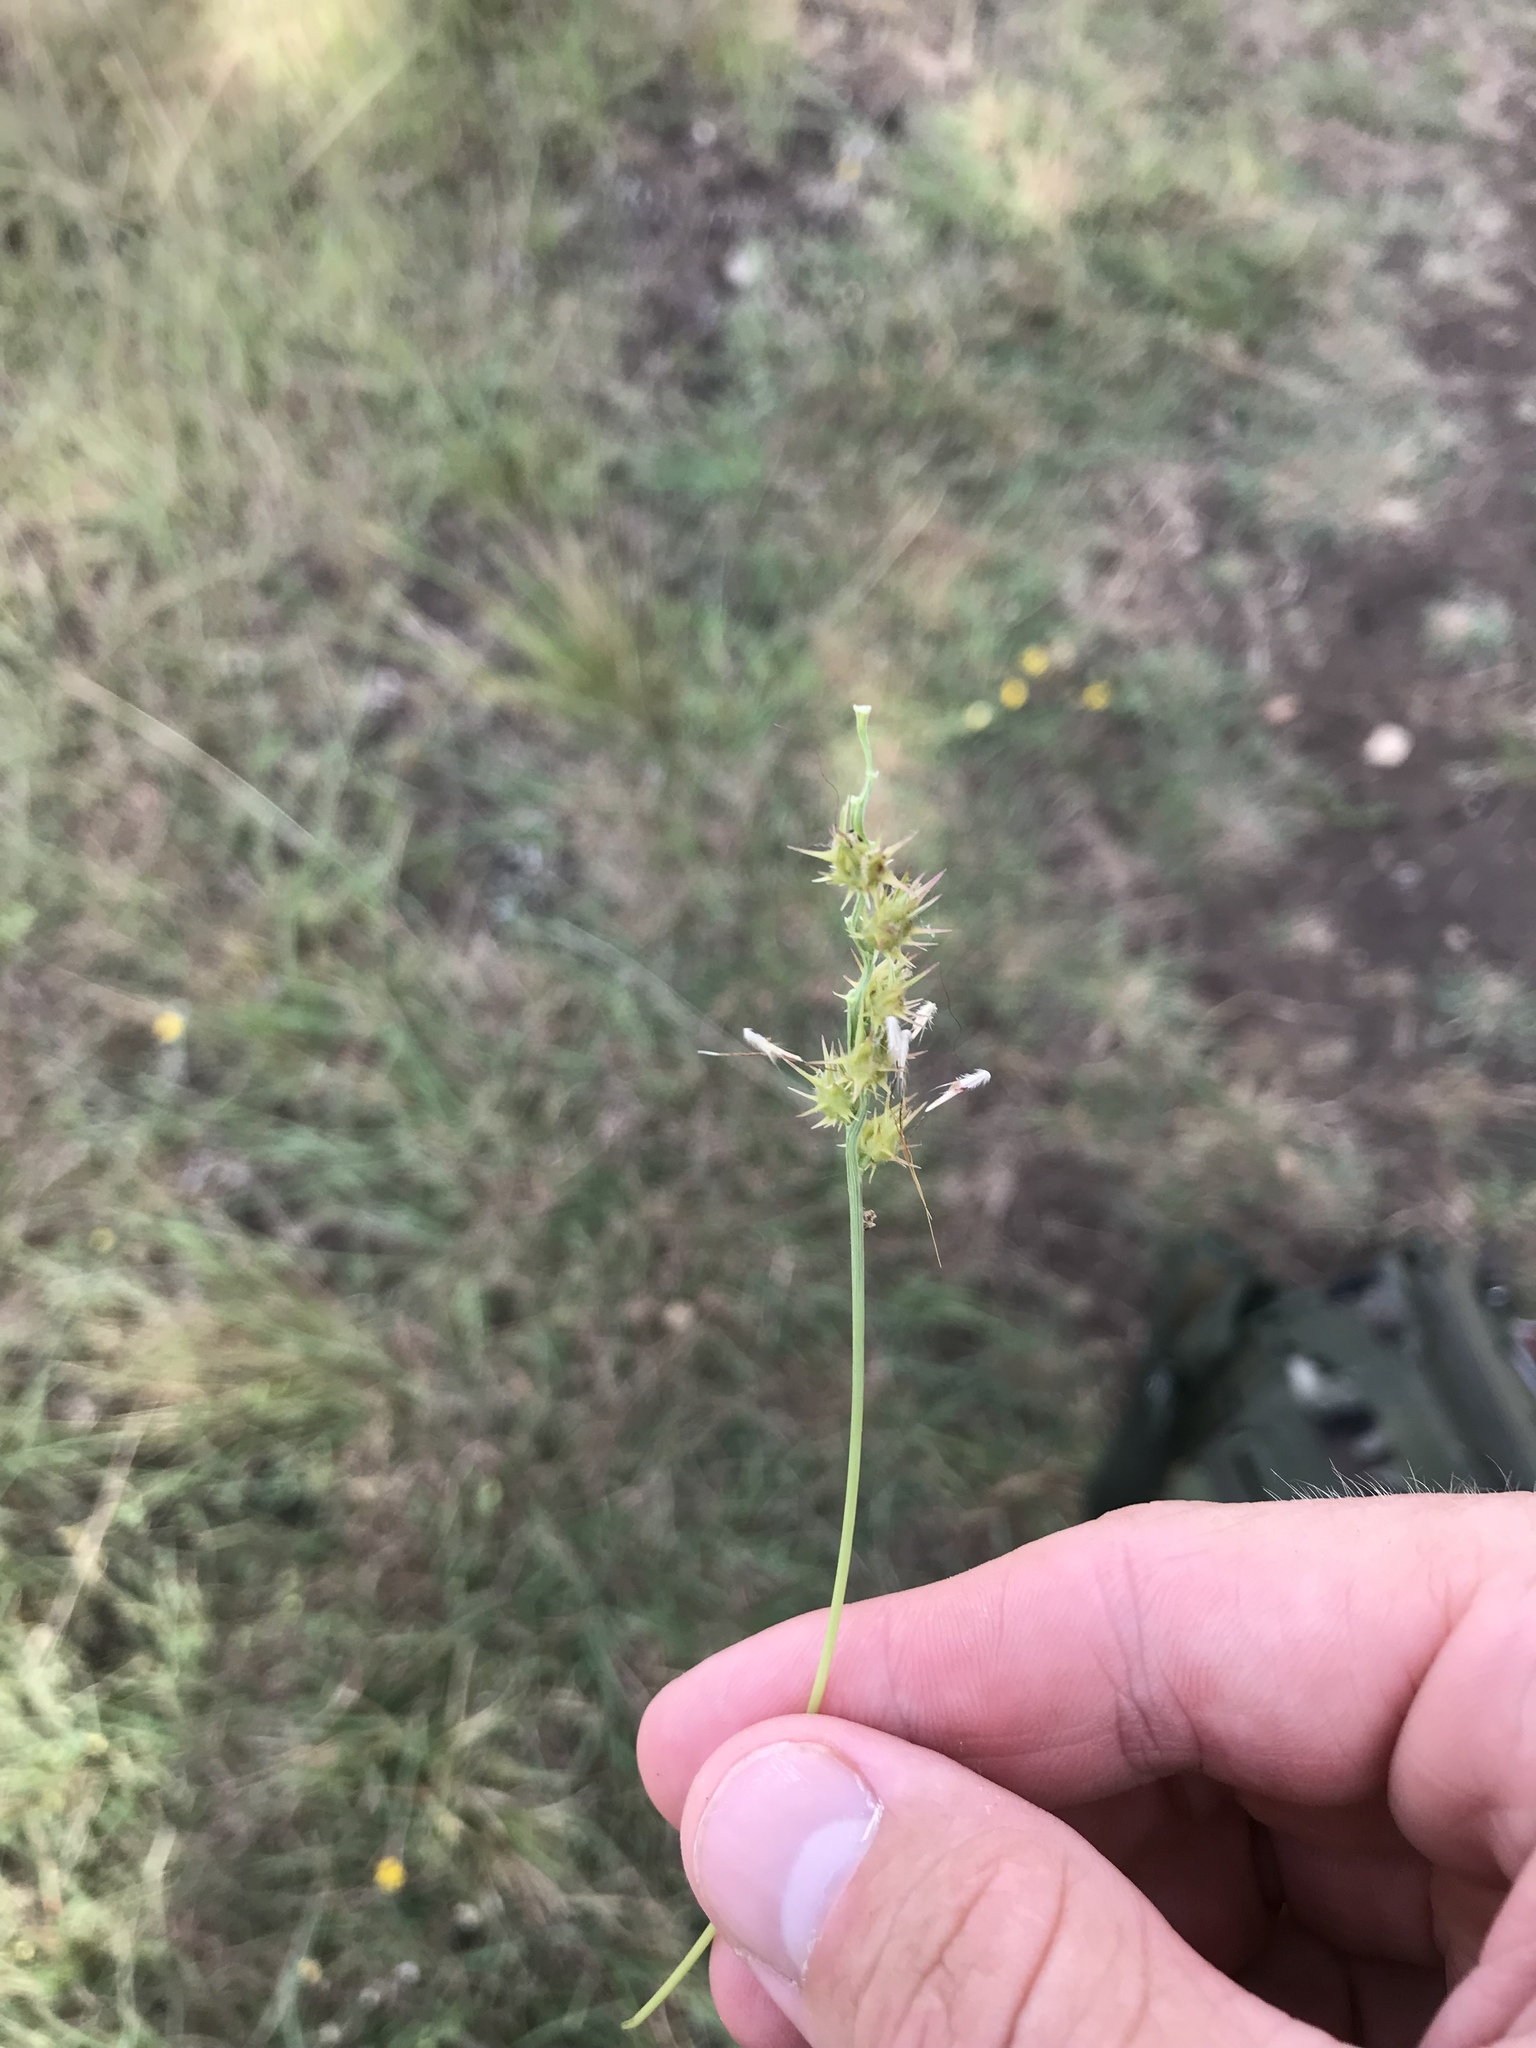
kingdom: Plantae
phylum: Tracheophyta
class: Liliopsida
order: Poales
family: Poaceae
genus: Cenchrus
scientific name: Cenchrus spinifex
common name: Coast sandbur
